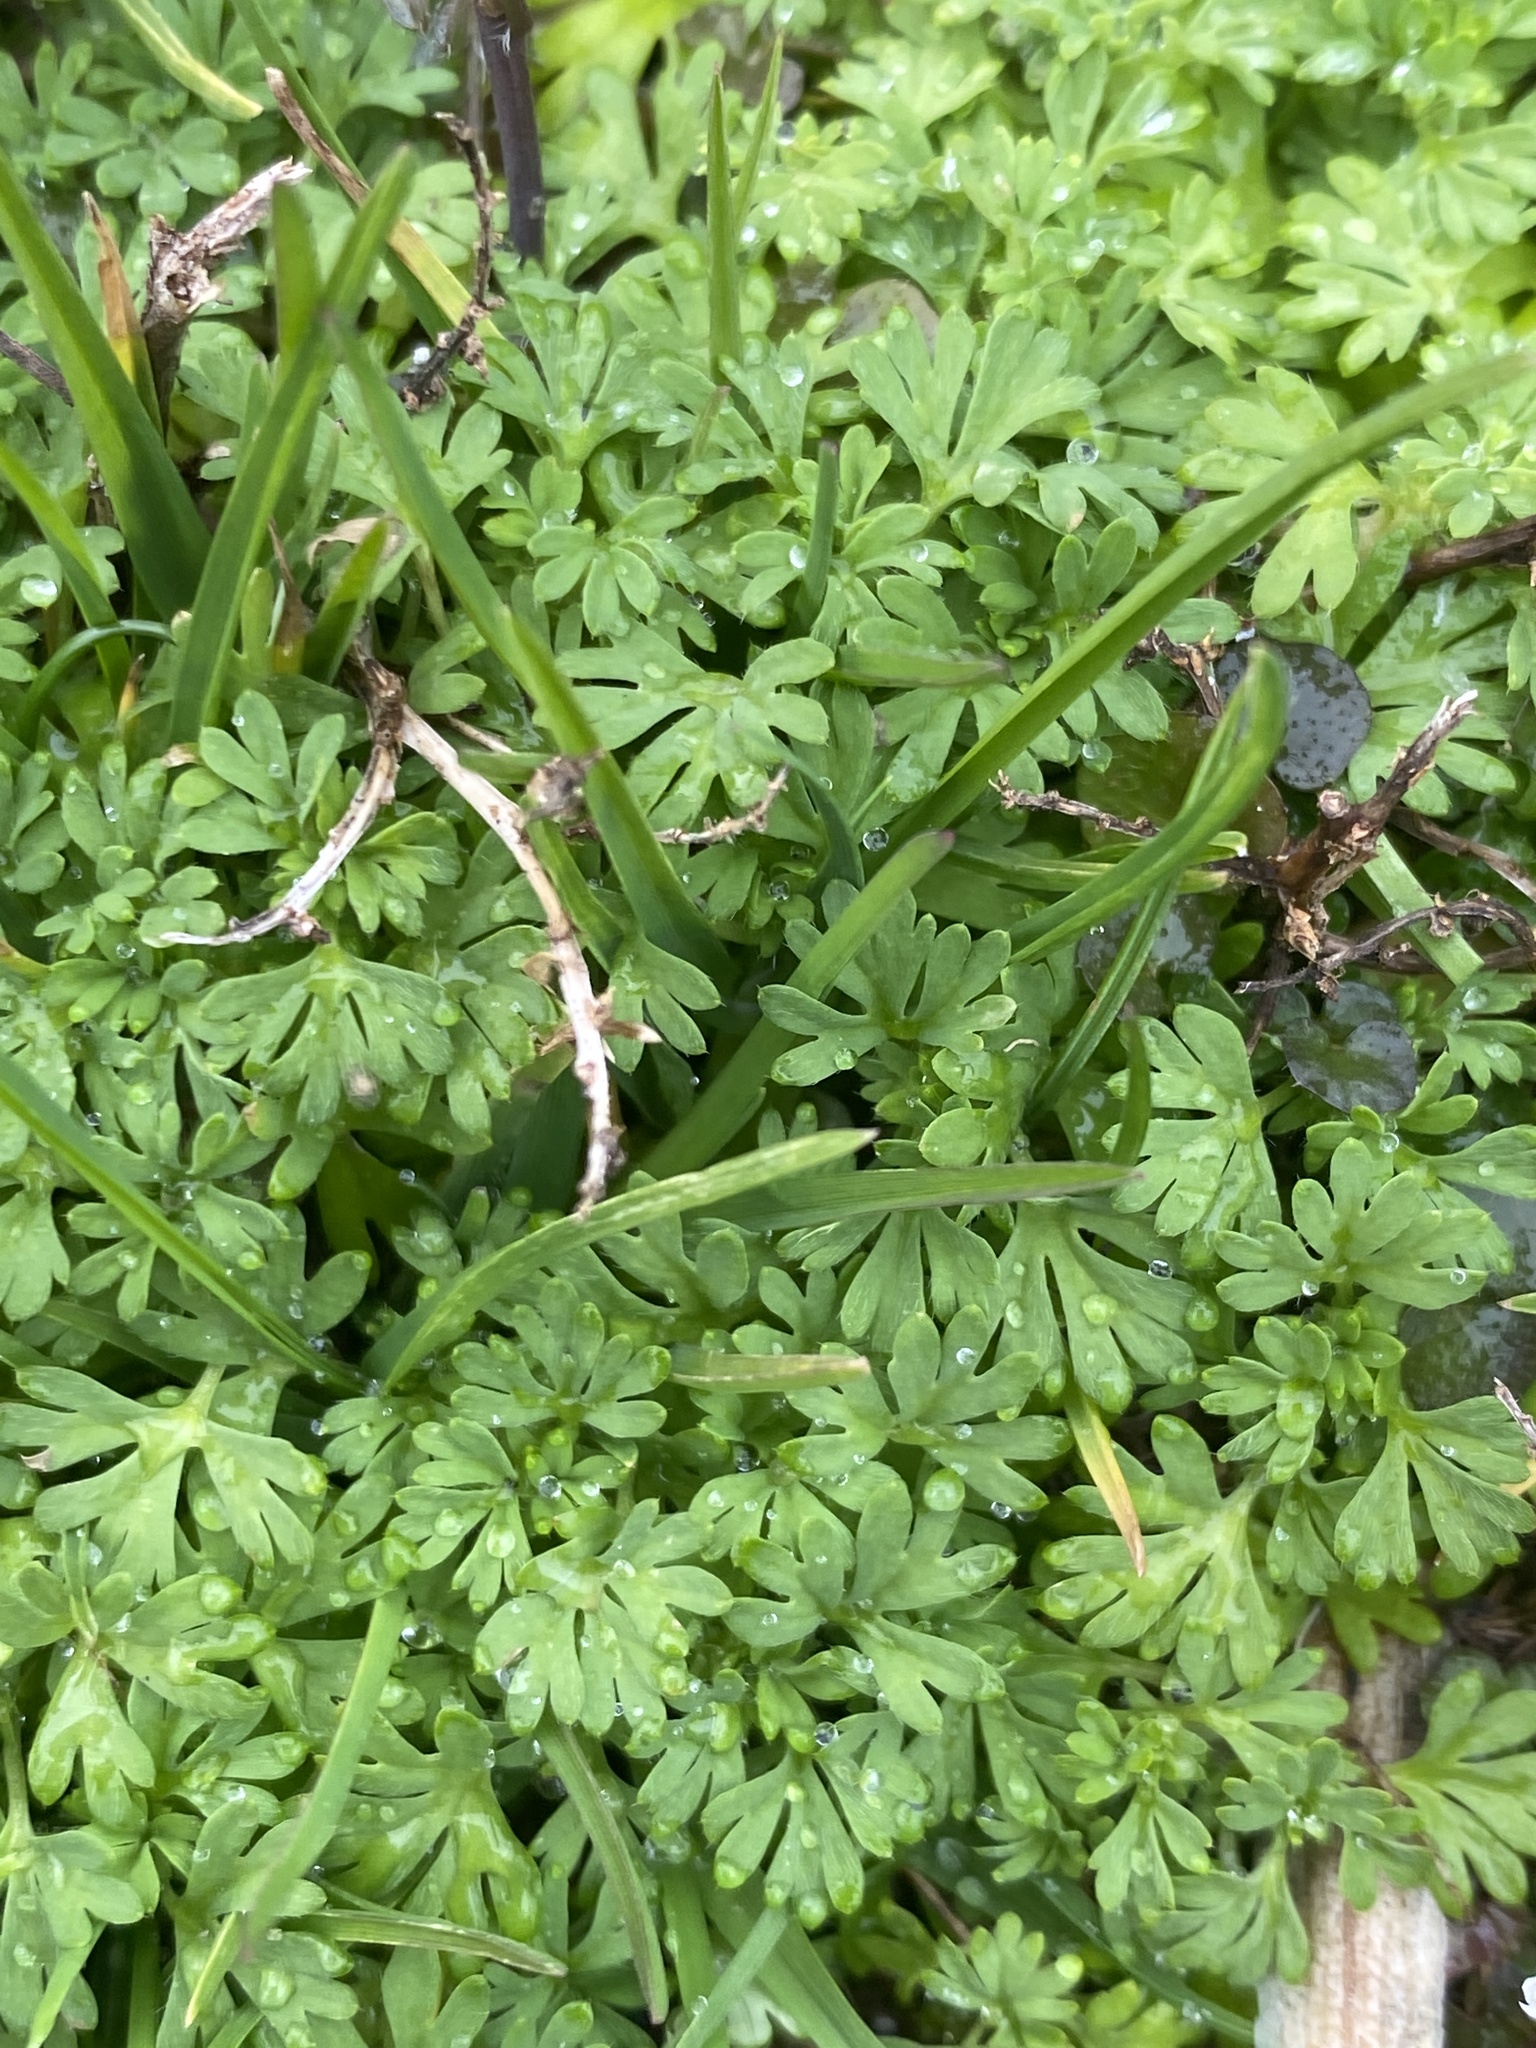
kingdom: Plantae
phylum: Tracheophyta
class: Magnoliopsida
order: Rosales
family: Rosaceae
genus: Aphanes
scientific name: Aphanes australis
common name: Slender parsley-piert
